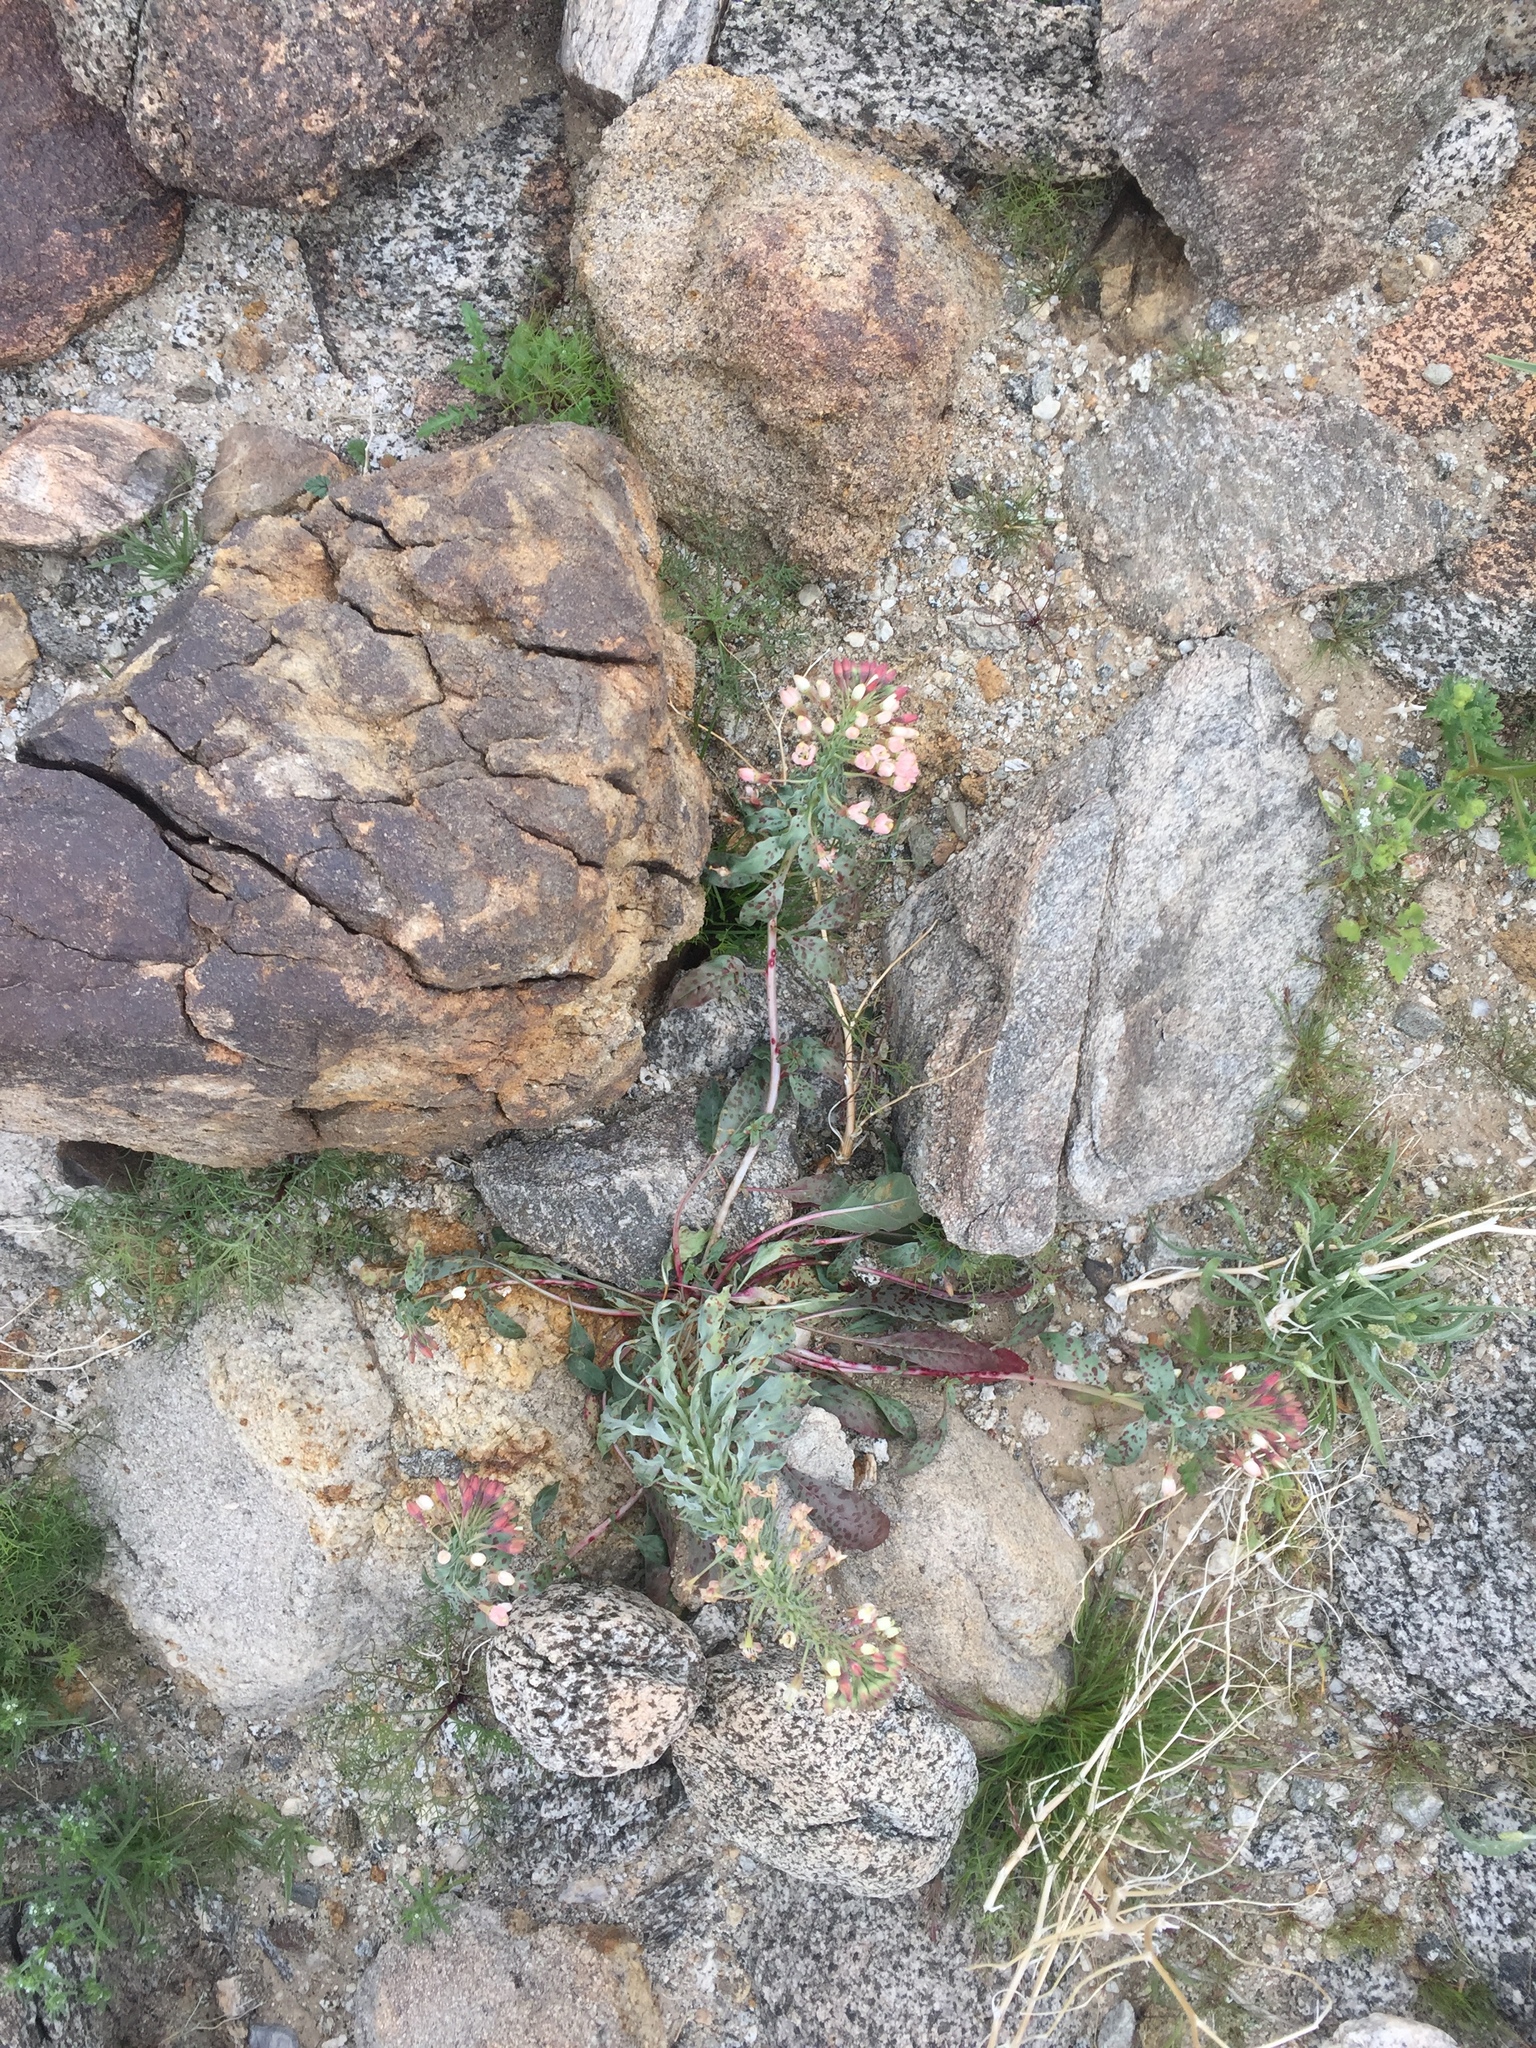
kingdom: Plantae
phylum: Tracheophyta
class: Magnoliopsida
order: Myrtales
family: Onagraceae
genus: Eremothera
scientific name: Eremothera boothii
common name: Booth's evening primrose
